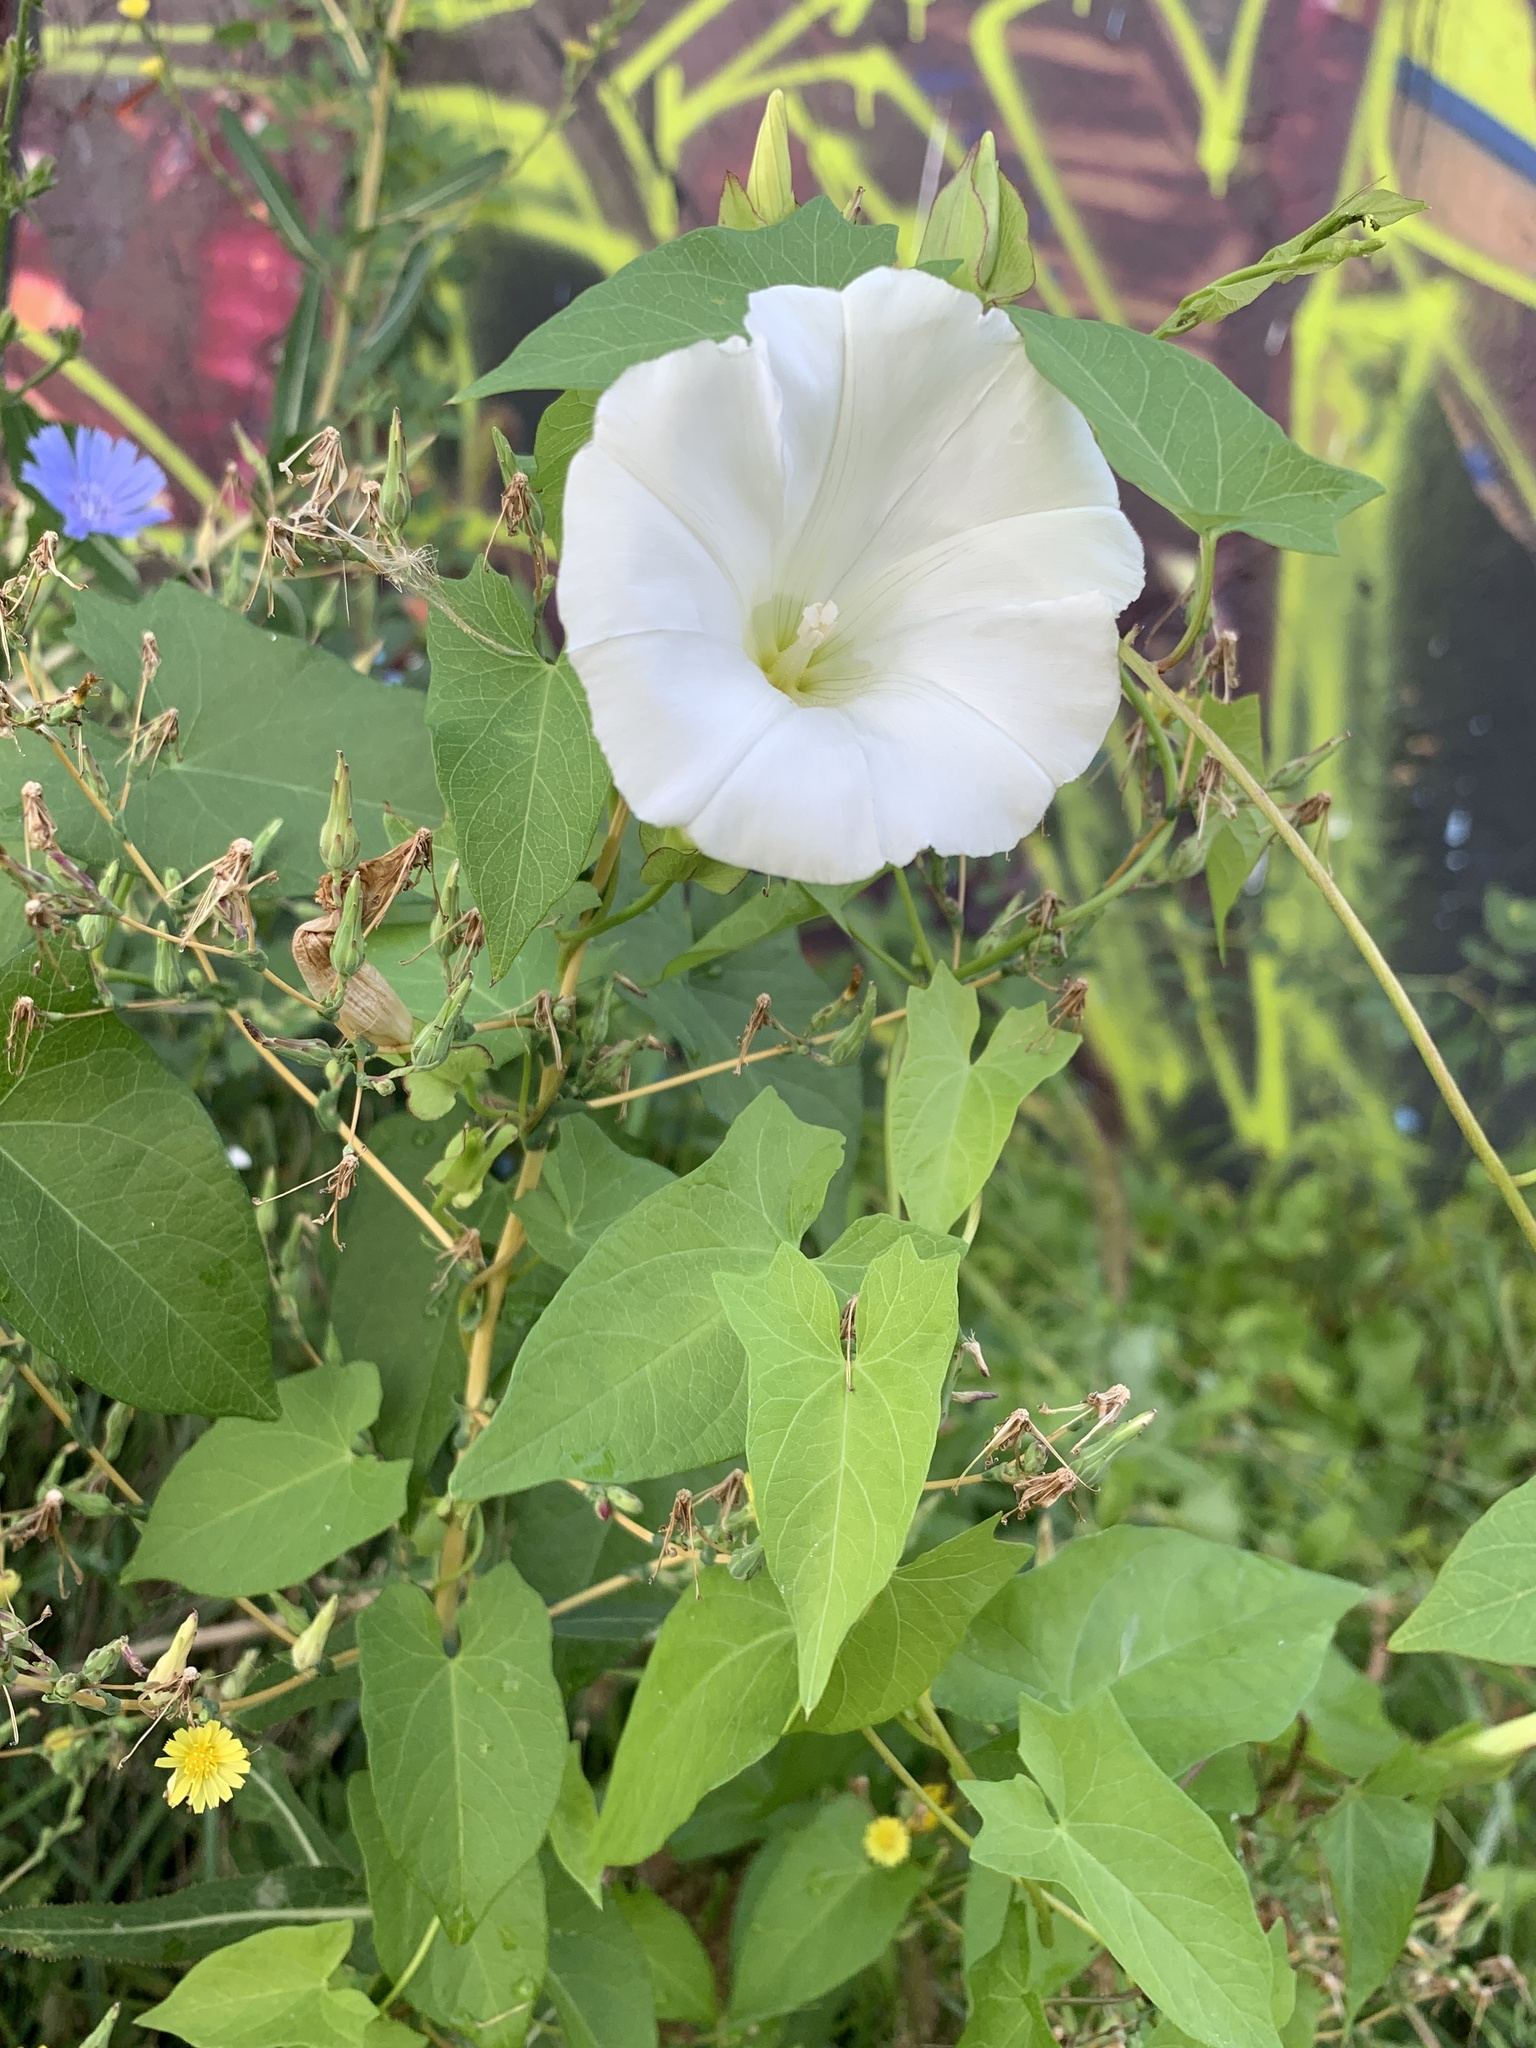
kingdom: Plantae
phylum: Tracheophyta
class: Magnoliopsida
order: Solanales
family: Convolvulaceae
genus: Calystegia
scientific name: Calystegia sepium
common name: Hedge bindweed
